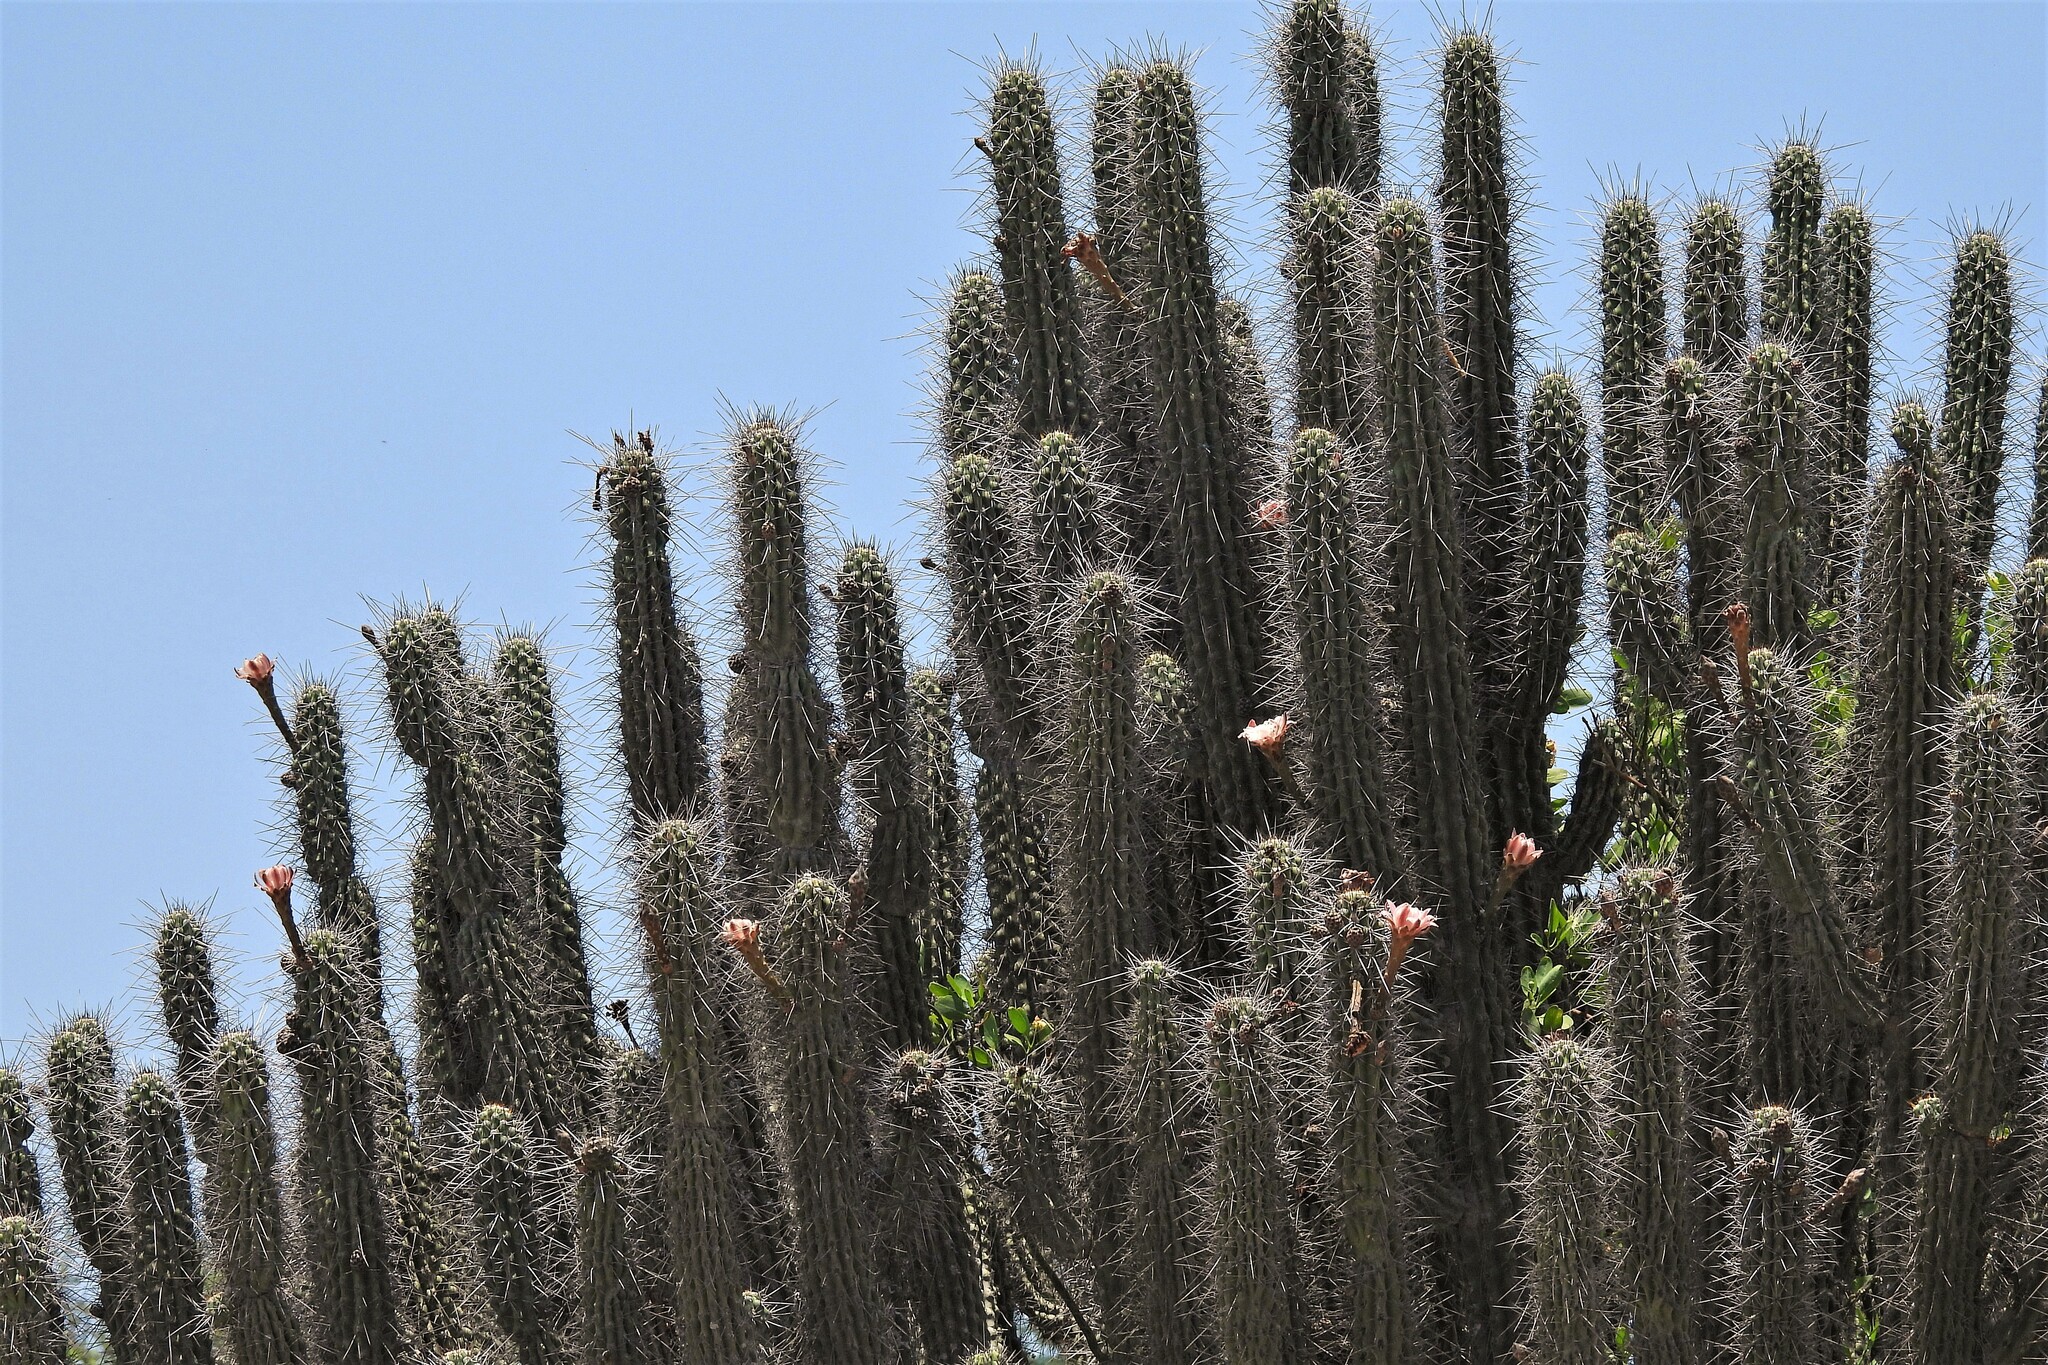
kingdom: Plantae
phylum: Tracheophyta
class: Magnoliopsida
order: Caryophyllales
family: Cactaceae
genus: Stetsonia
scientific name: Stetsonia coryne
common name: Toothpick cactus
